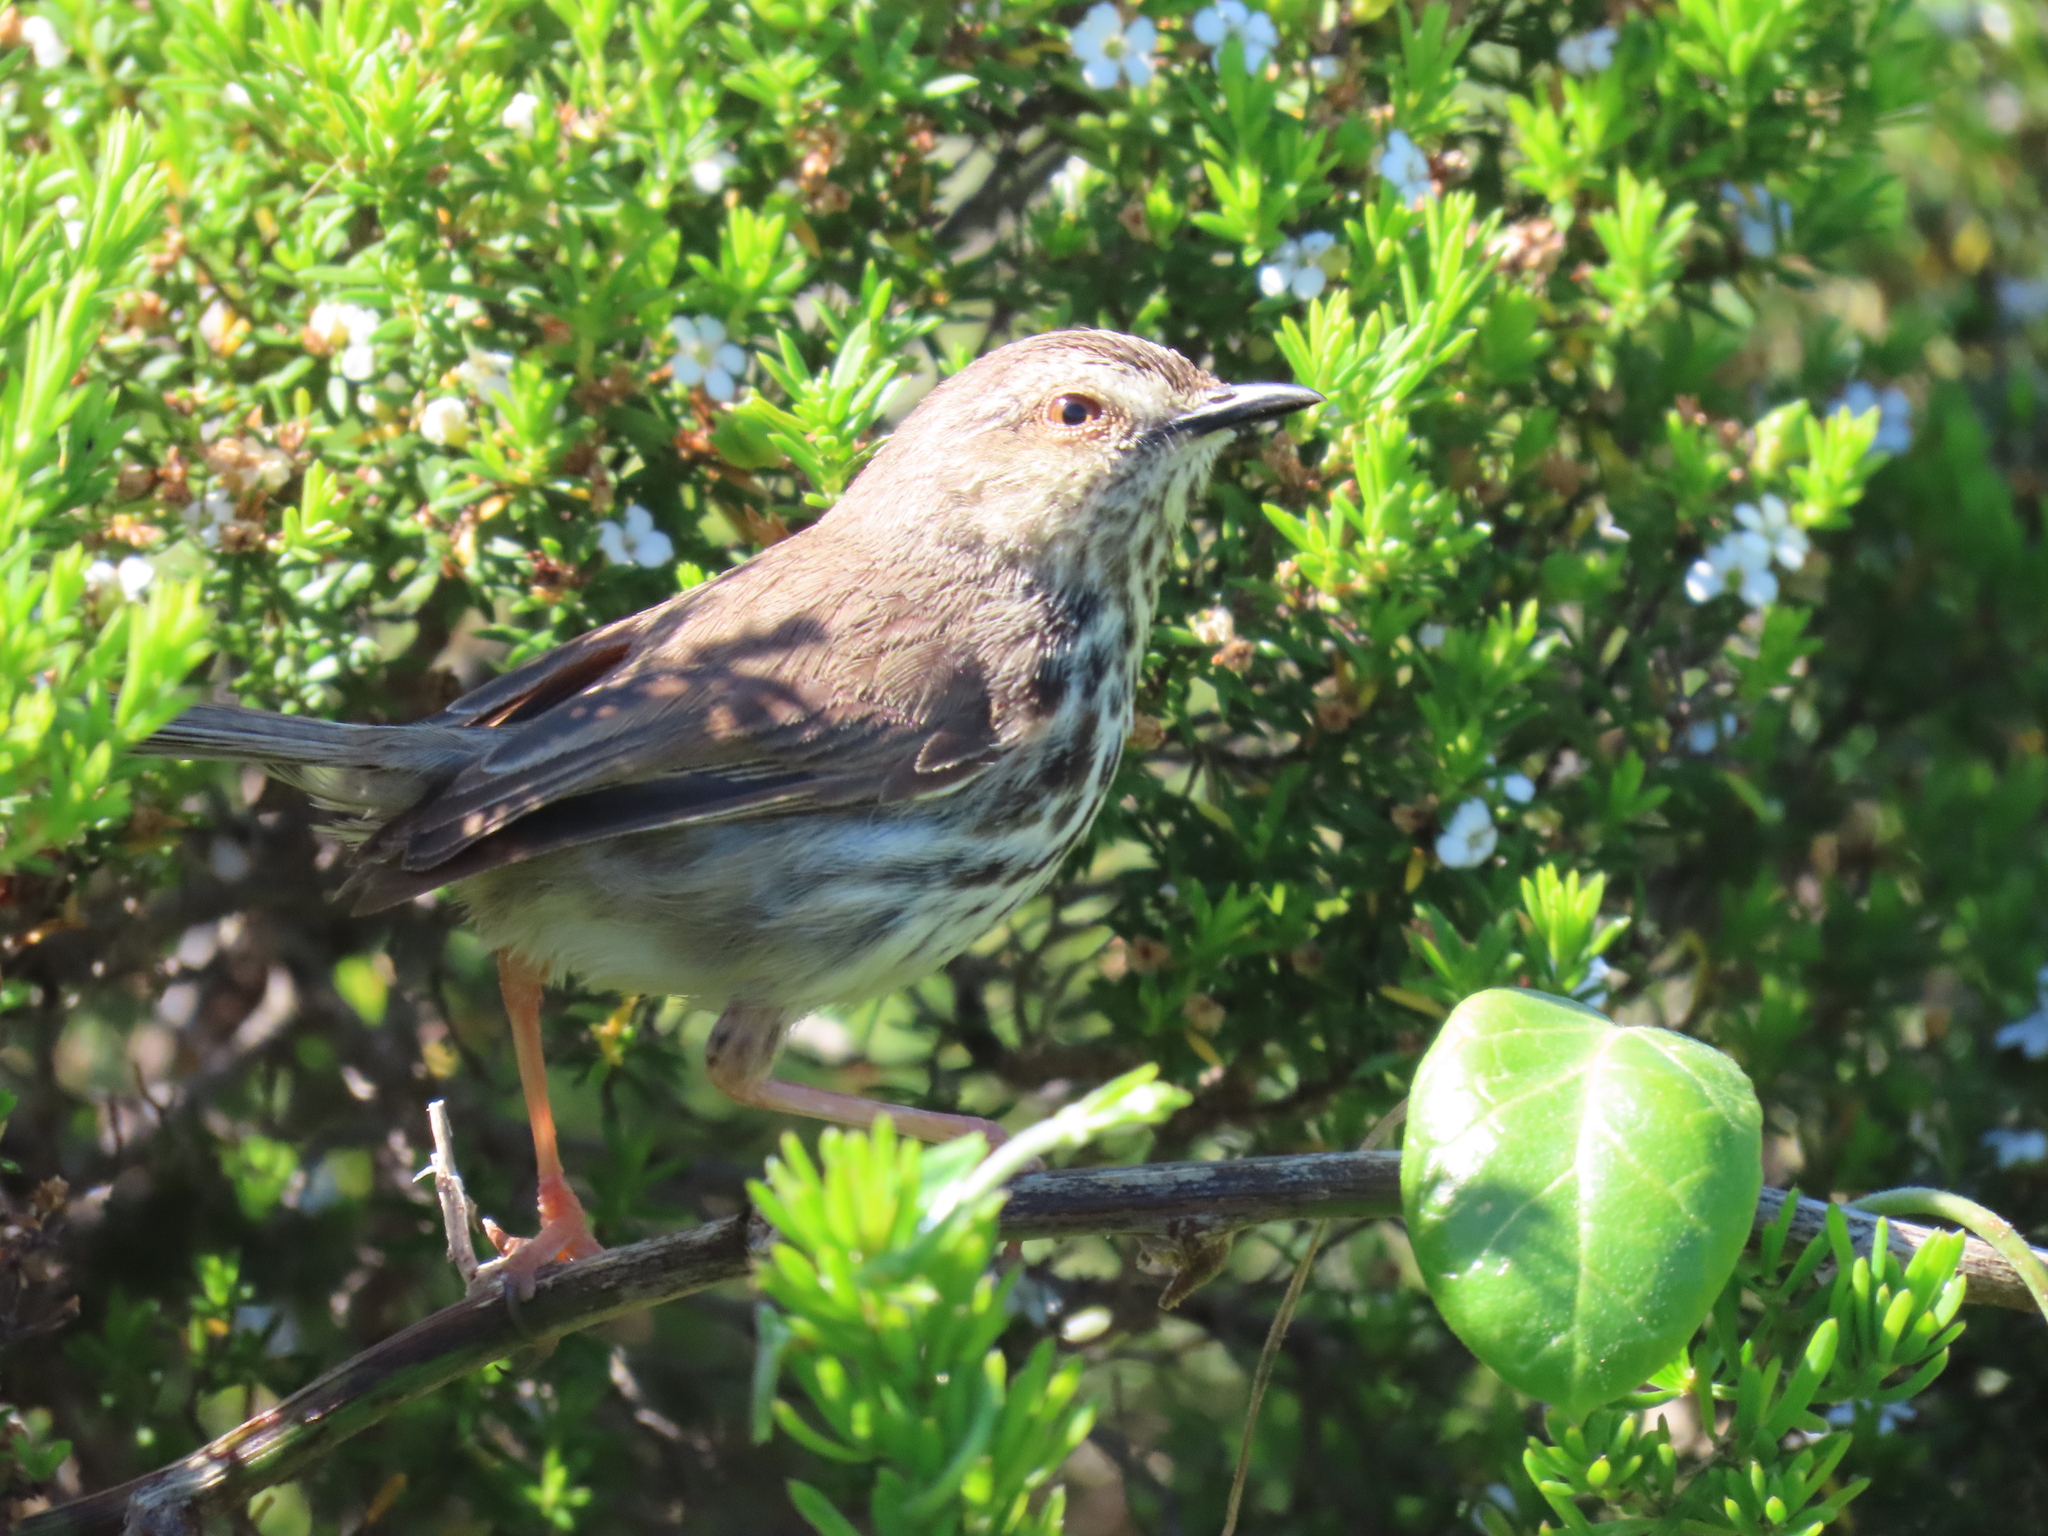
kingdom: Animalia
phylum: Chordata
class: Aves
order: Passeriformes
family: Cisticolidae
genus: Prinia
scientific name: Prinia maculosa
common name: Karoo prinia
